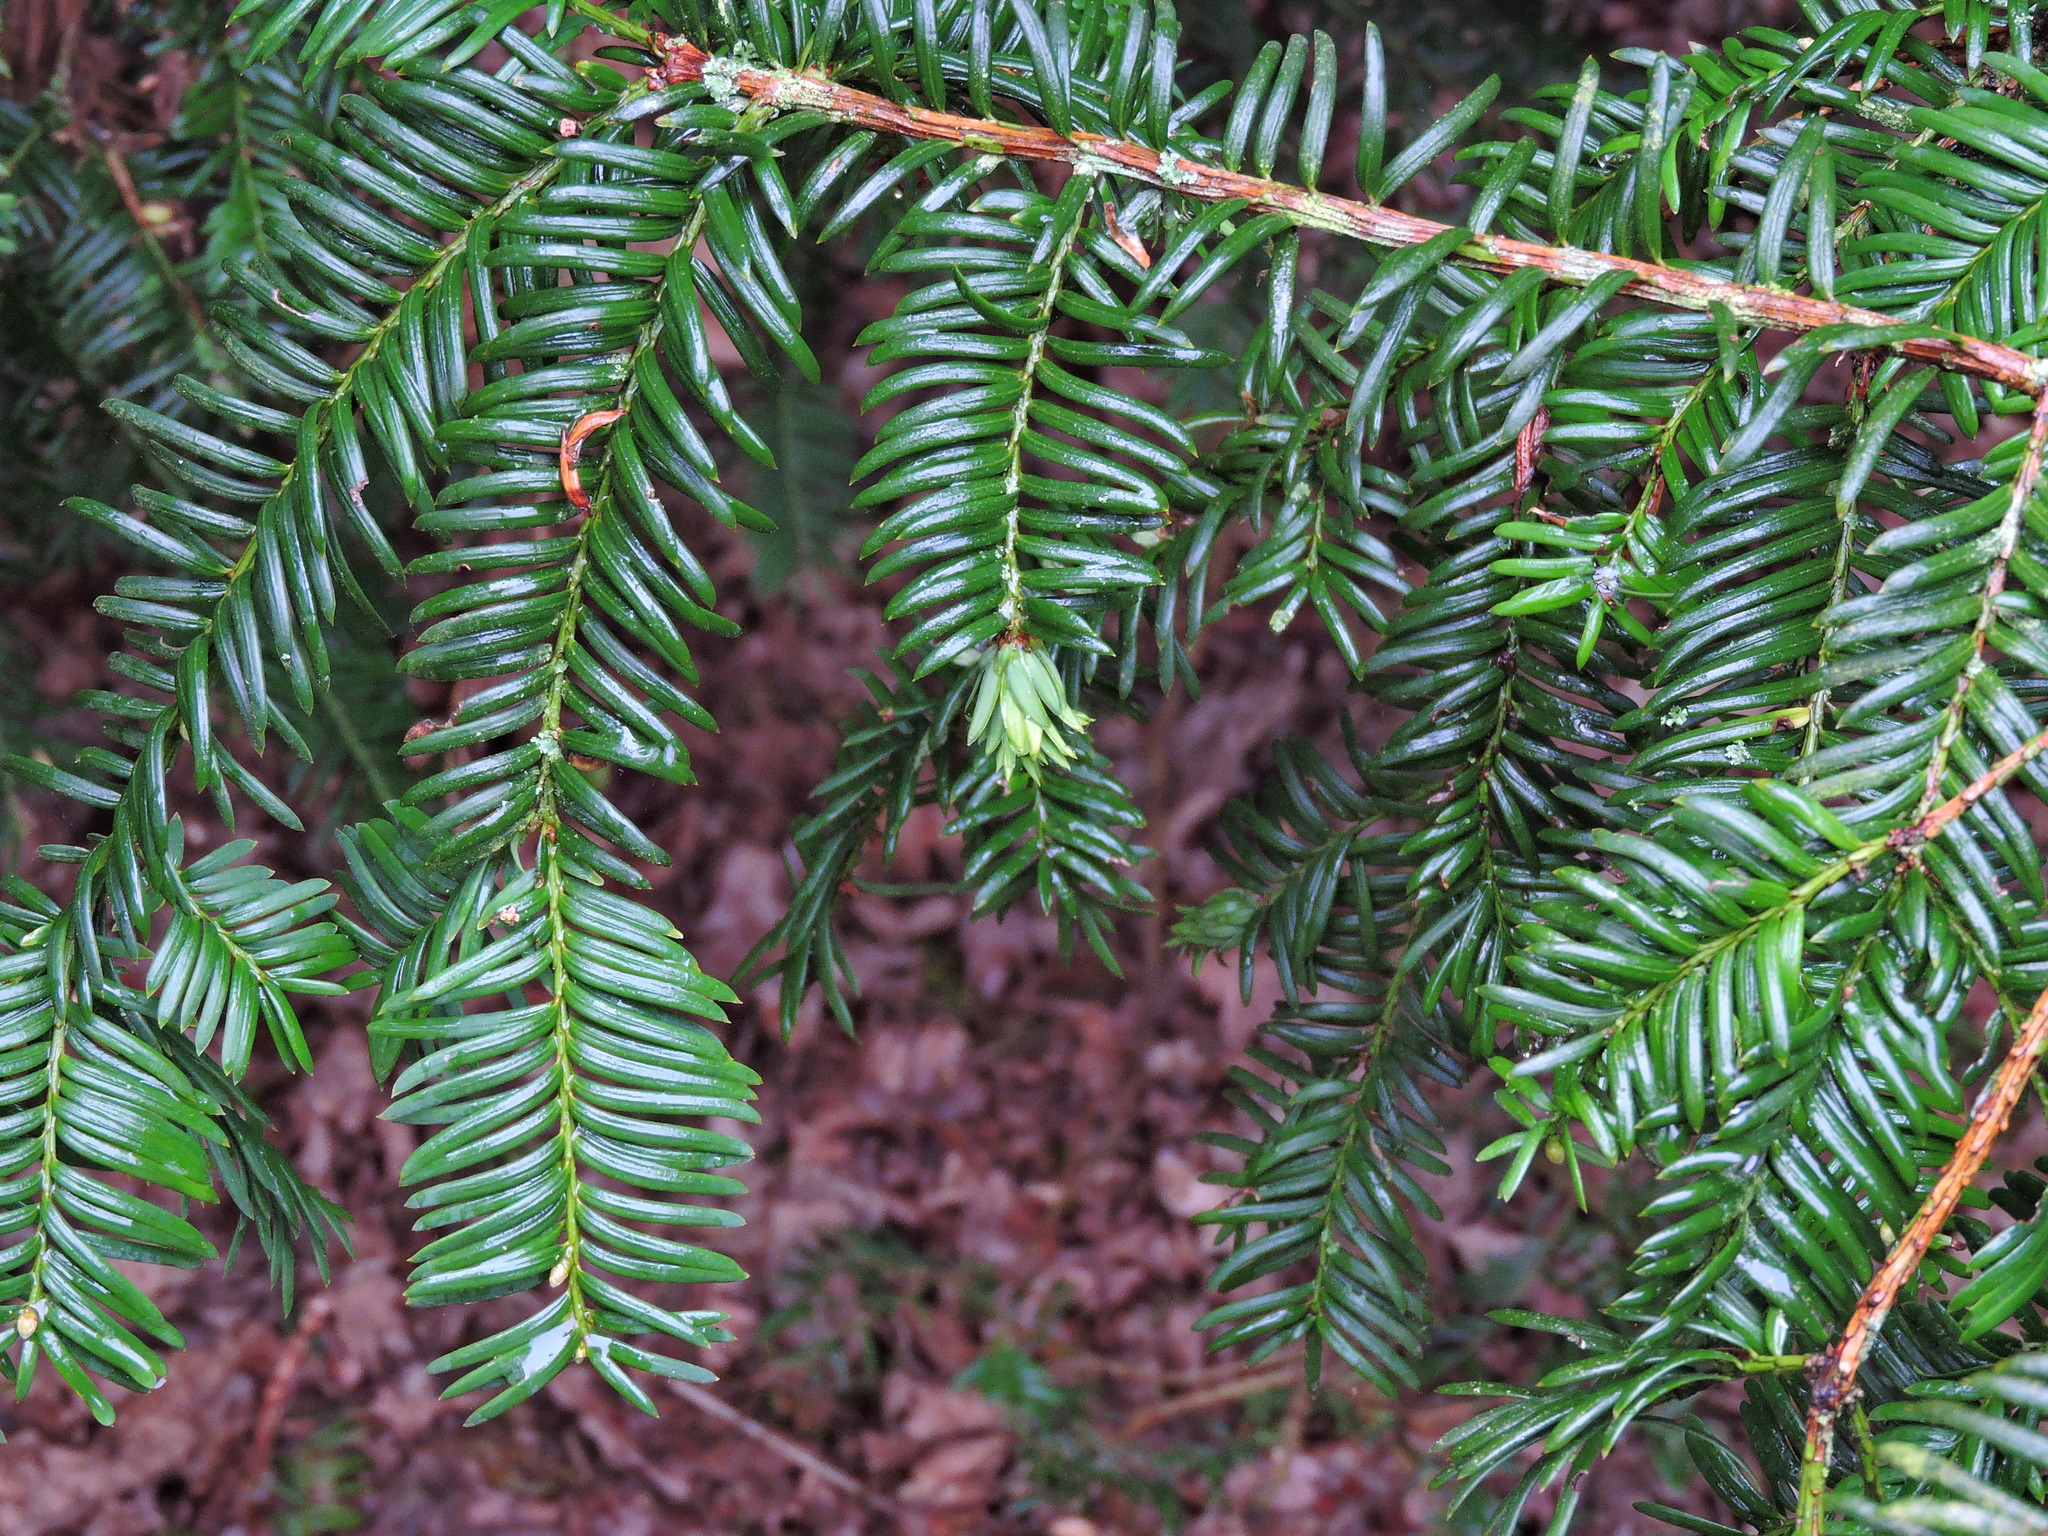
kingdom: Animalia
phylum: Arthropoda
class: Insecta
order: Diptera
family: Cecidomyiidae
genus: Taxomyia
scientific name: Taxomyia taxi
